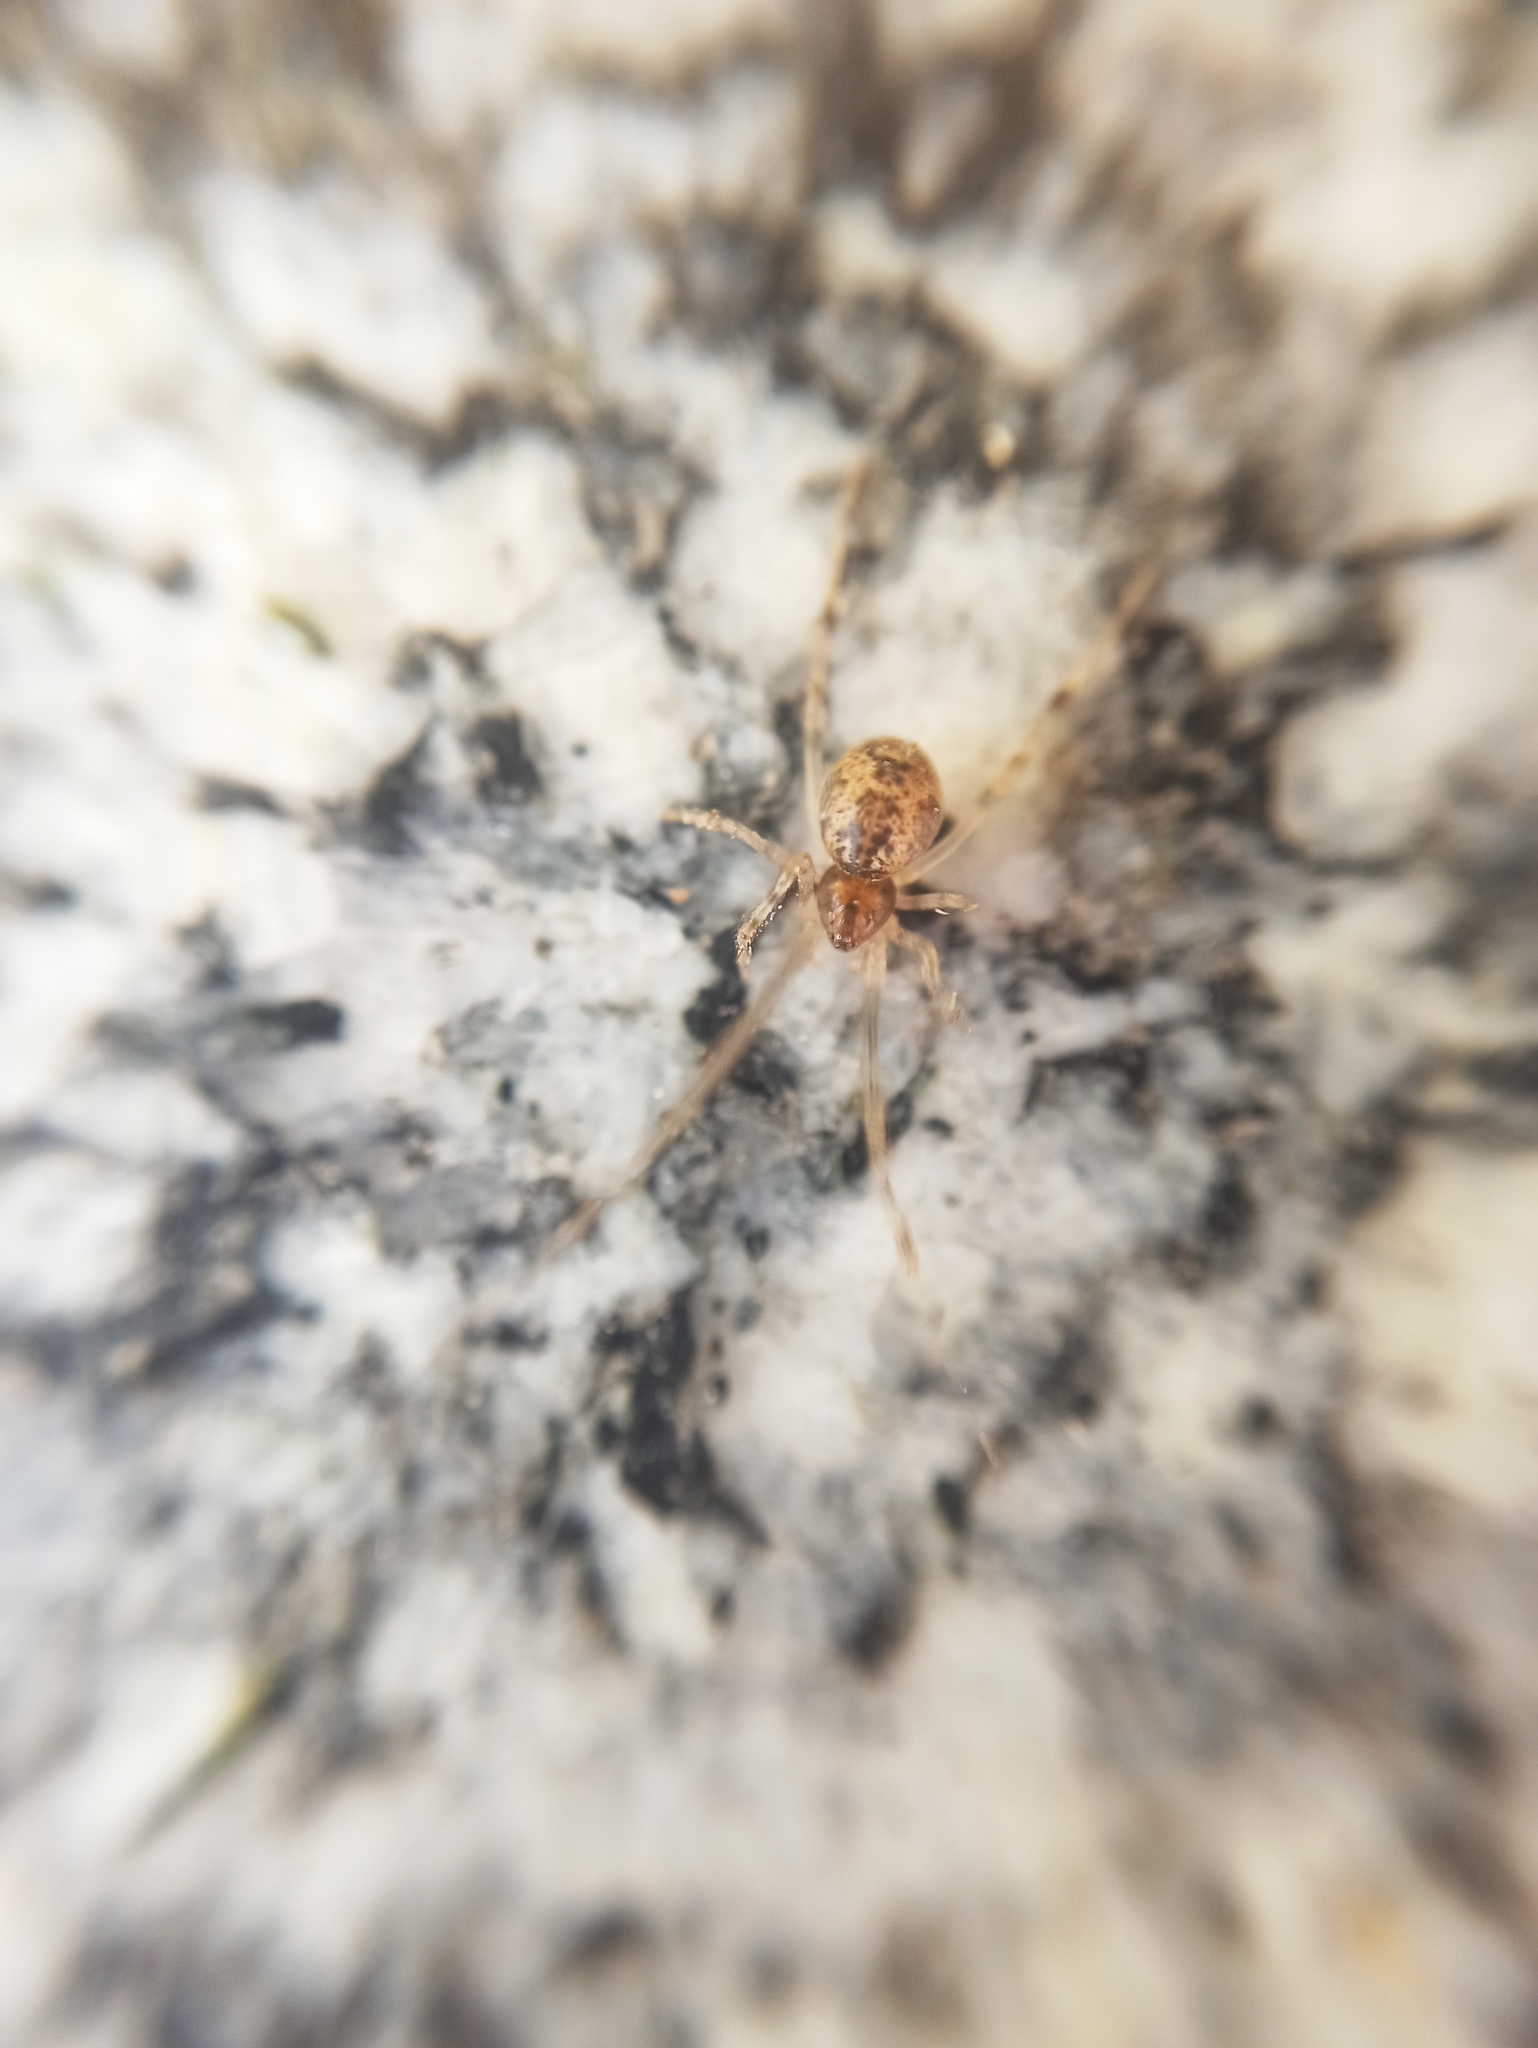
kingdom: Animalia
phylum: Arthropoda
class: Arachnida
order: Araneae
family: Theridiidae
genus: Parasteatoda
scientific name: Parasteatoda tepidariorum
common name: Common house spider
